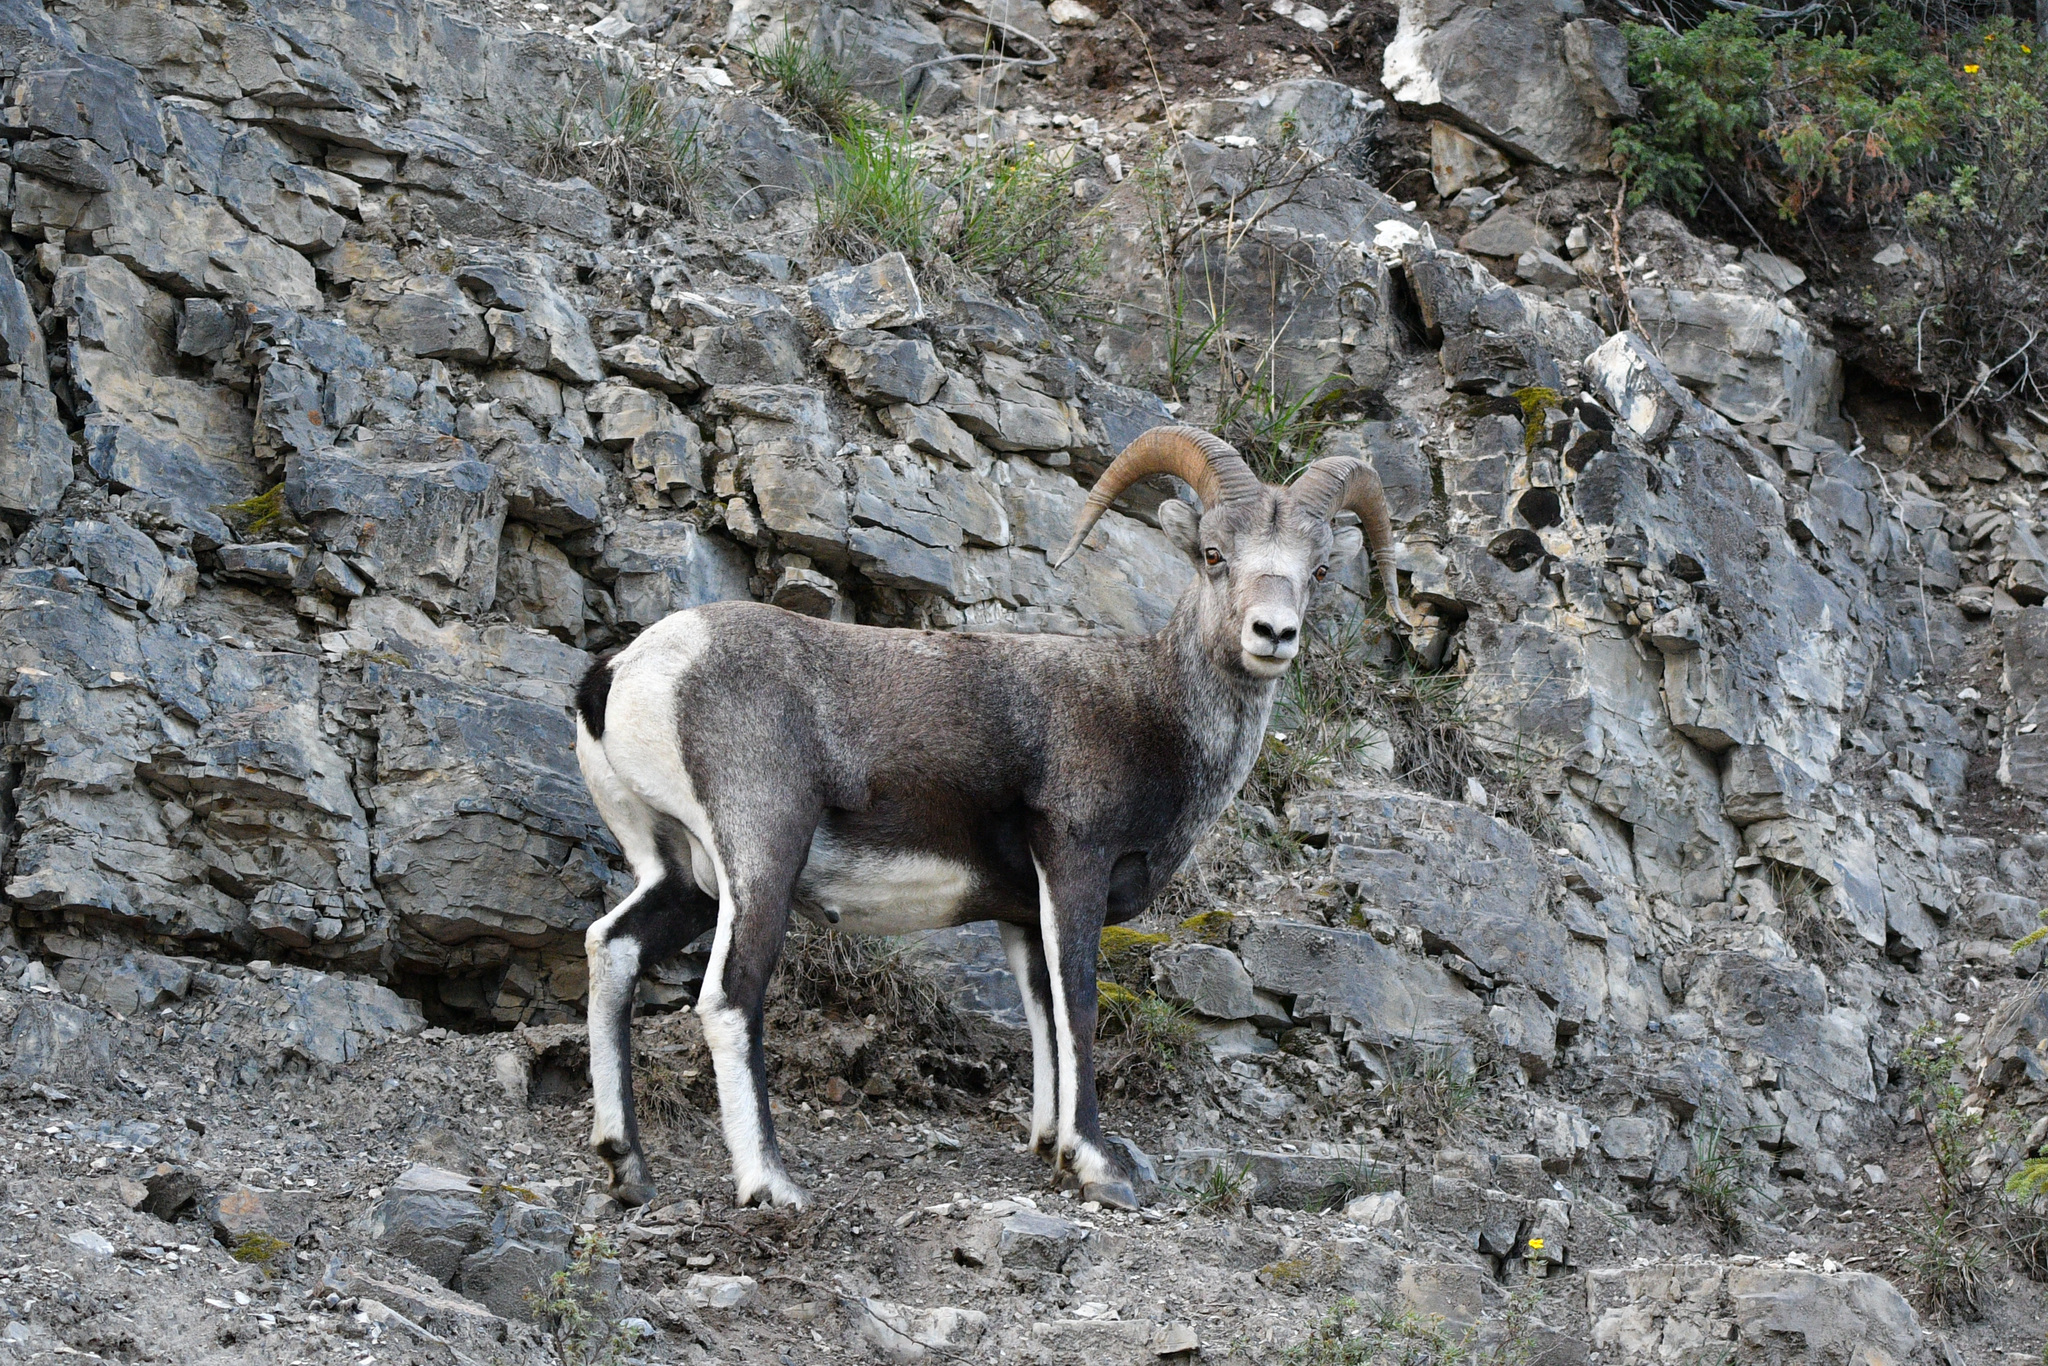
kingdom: Animalia
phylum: Chordata
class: Mammalia
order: Artiodactyla
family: Bovidae
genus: Ovis
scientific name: Ovis dalli
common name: Dall's sheep
